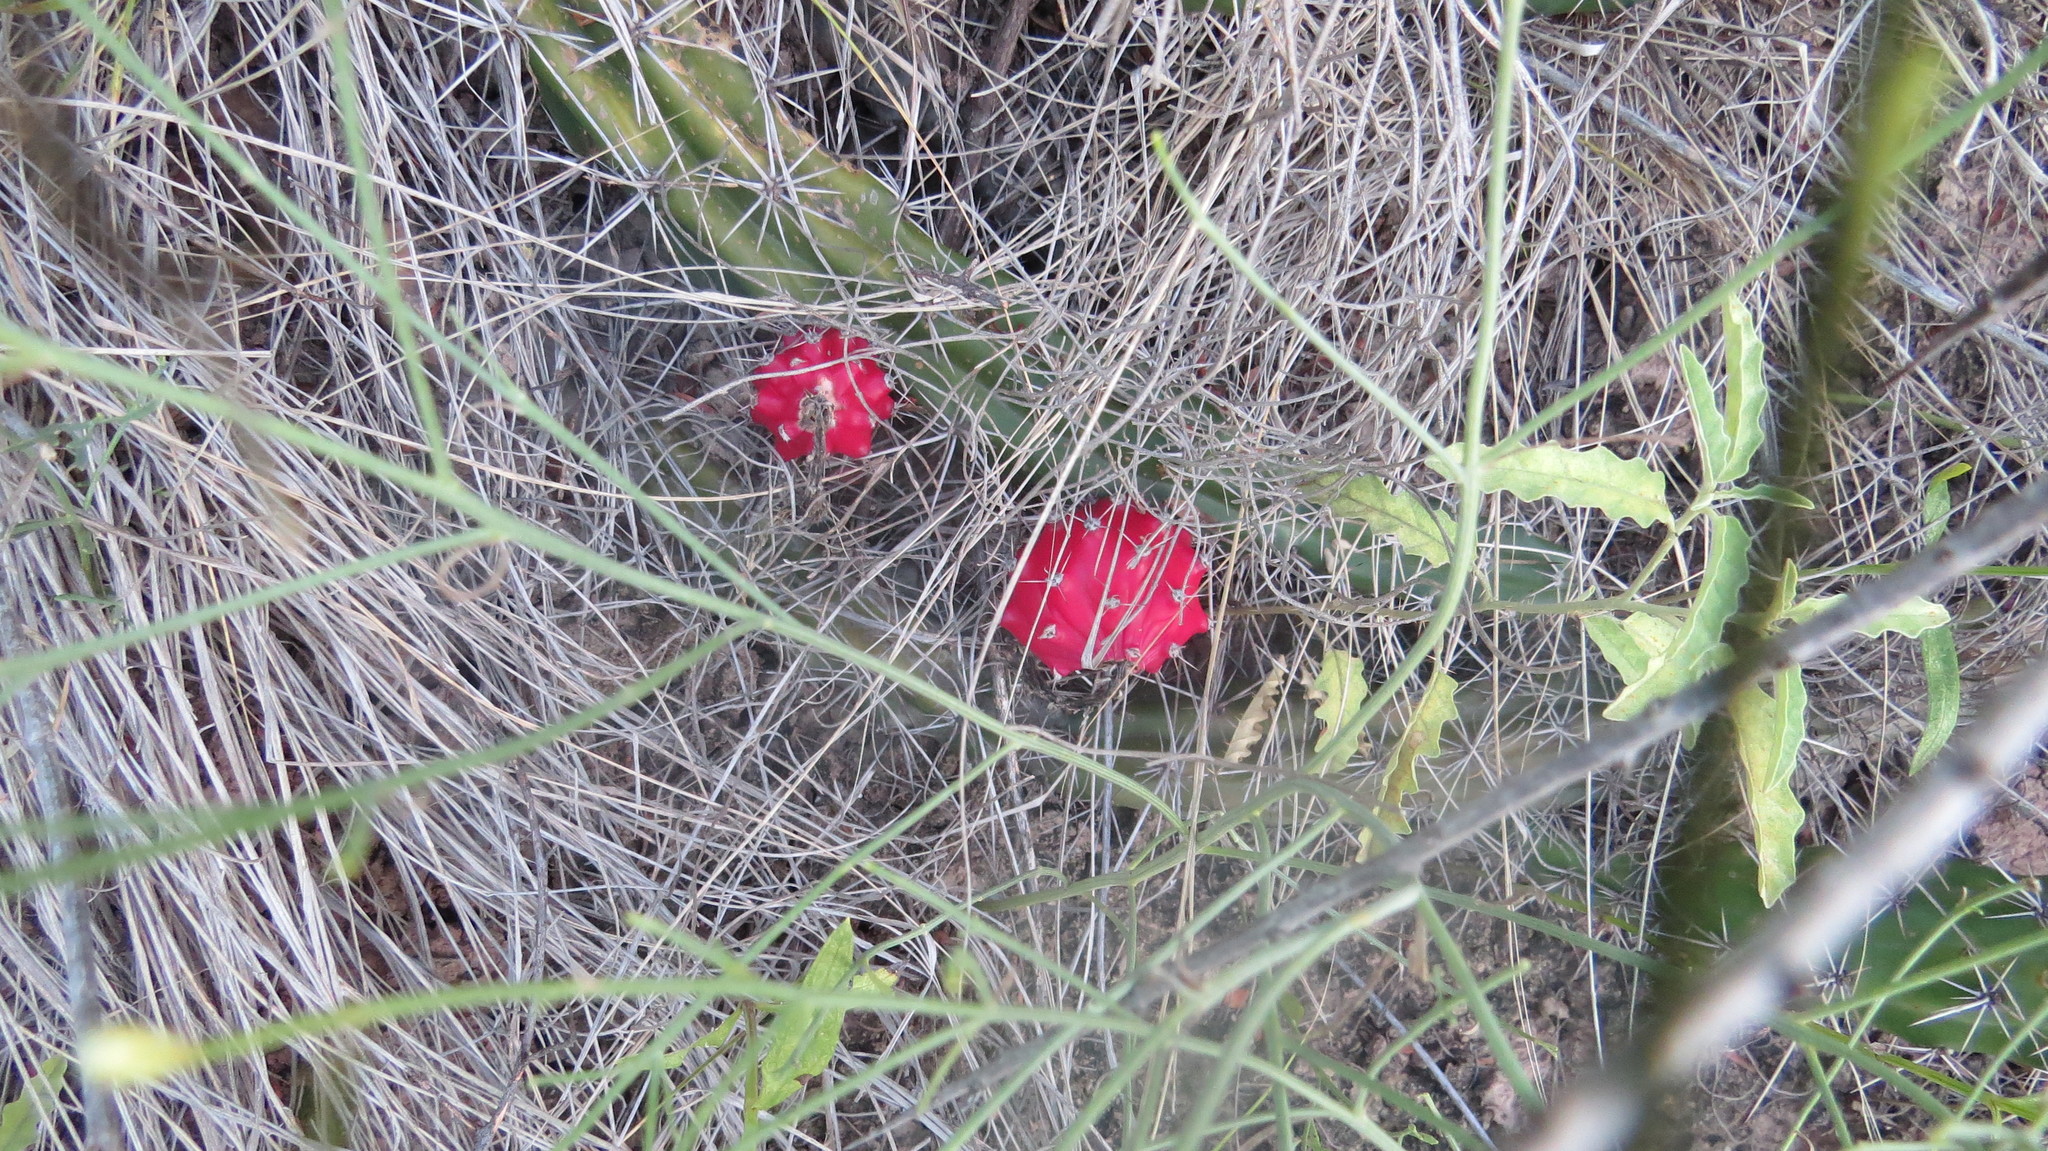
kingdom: Plantae
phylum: Tracheophyta
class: Magnoliopsida
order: Caryophyllales
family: Cactaceae
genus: Harrisia
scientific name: Harrisia tortuosa
